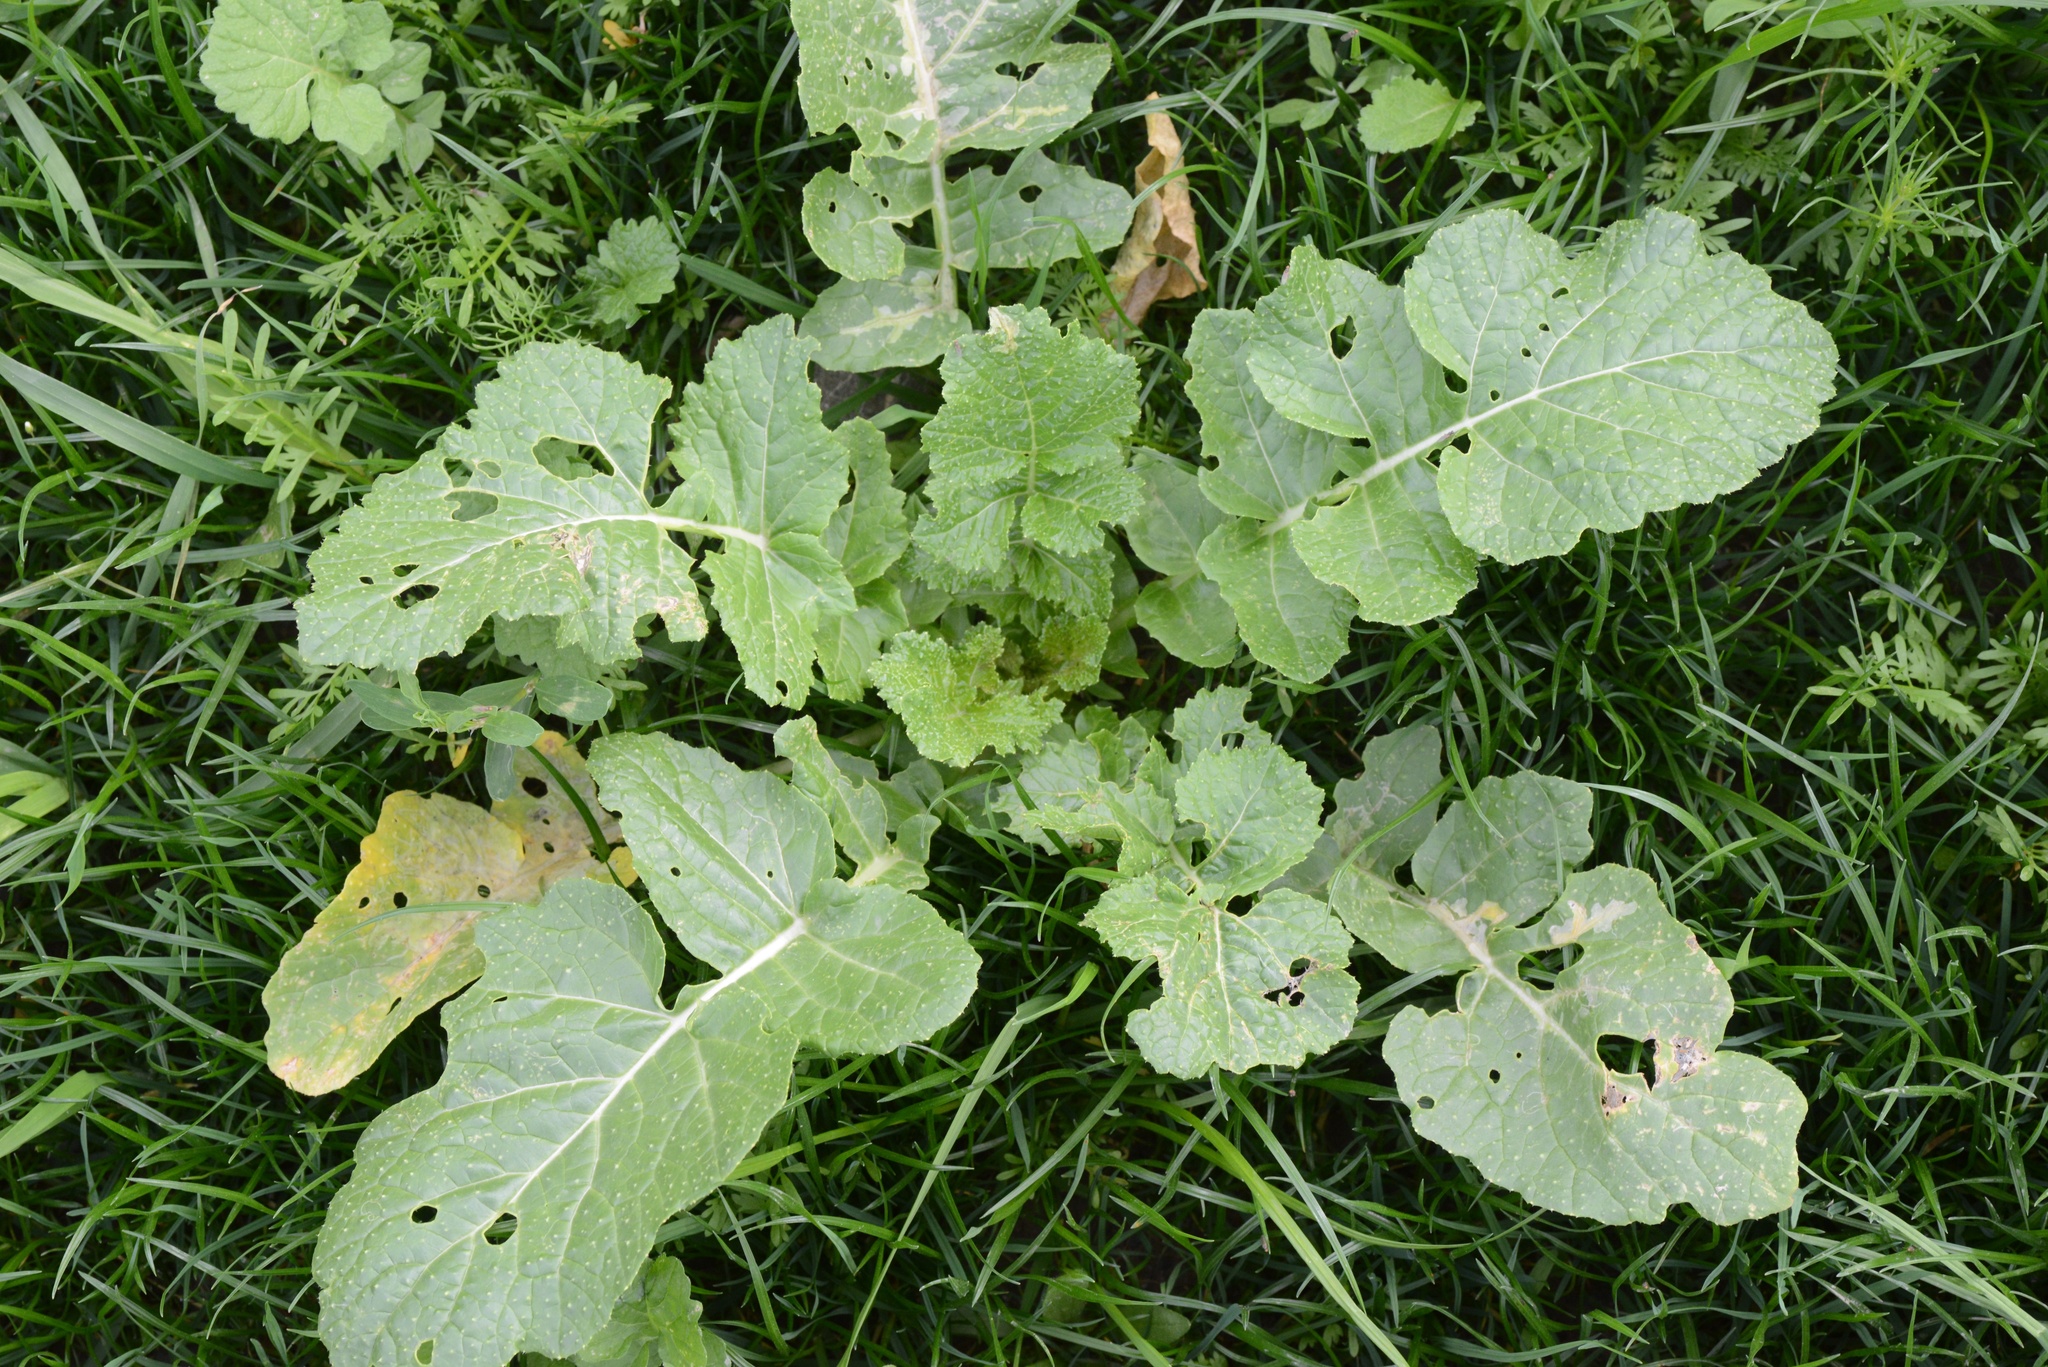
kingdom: Plantae
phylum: Tracheophyta
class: Magnoliopsida
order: Brassicales
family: Brassicaceae
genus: Raphanus
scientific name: Raphanus raphanistrum
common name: Wild radish
